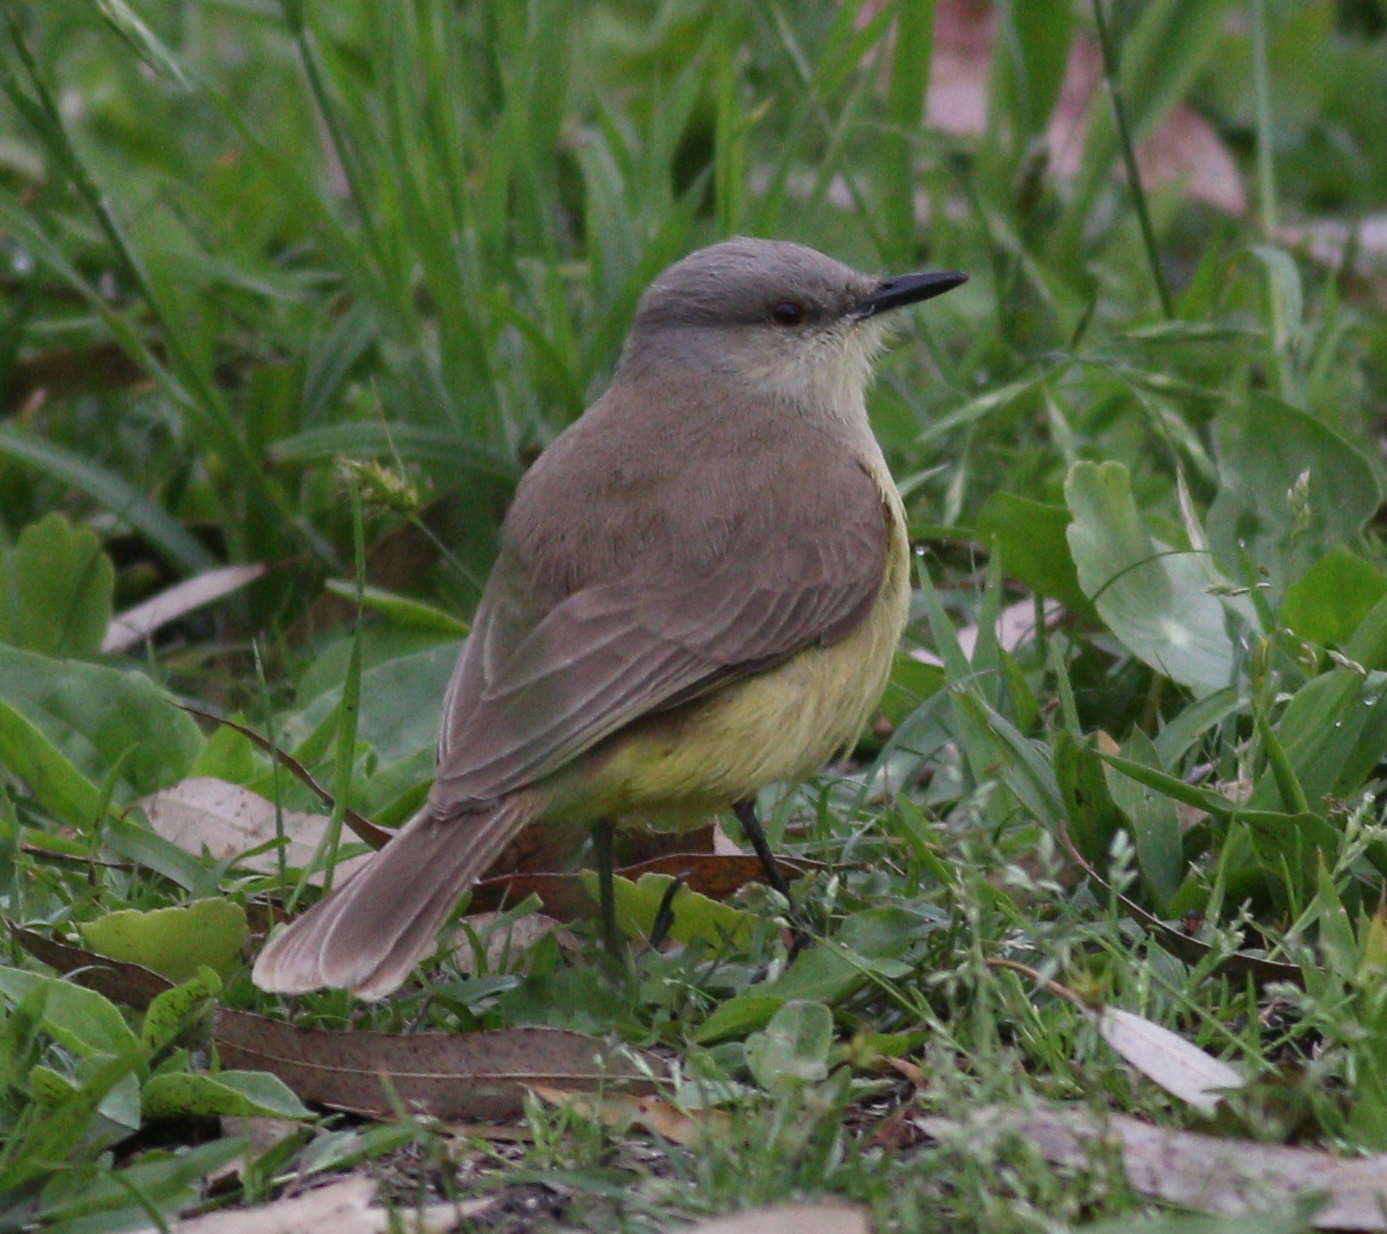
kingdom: Animalia
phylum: Chordata
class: Aves
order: Passeriformes
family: Tyrannidae
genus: Machetornis
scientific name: Machetornis rixosa
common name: Cattle tyrant
